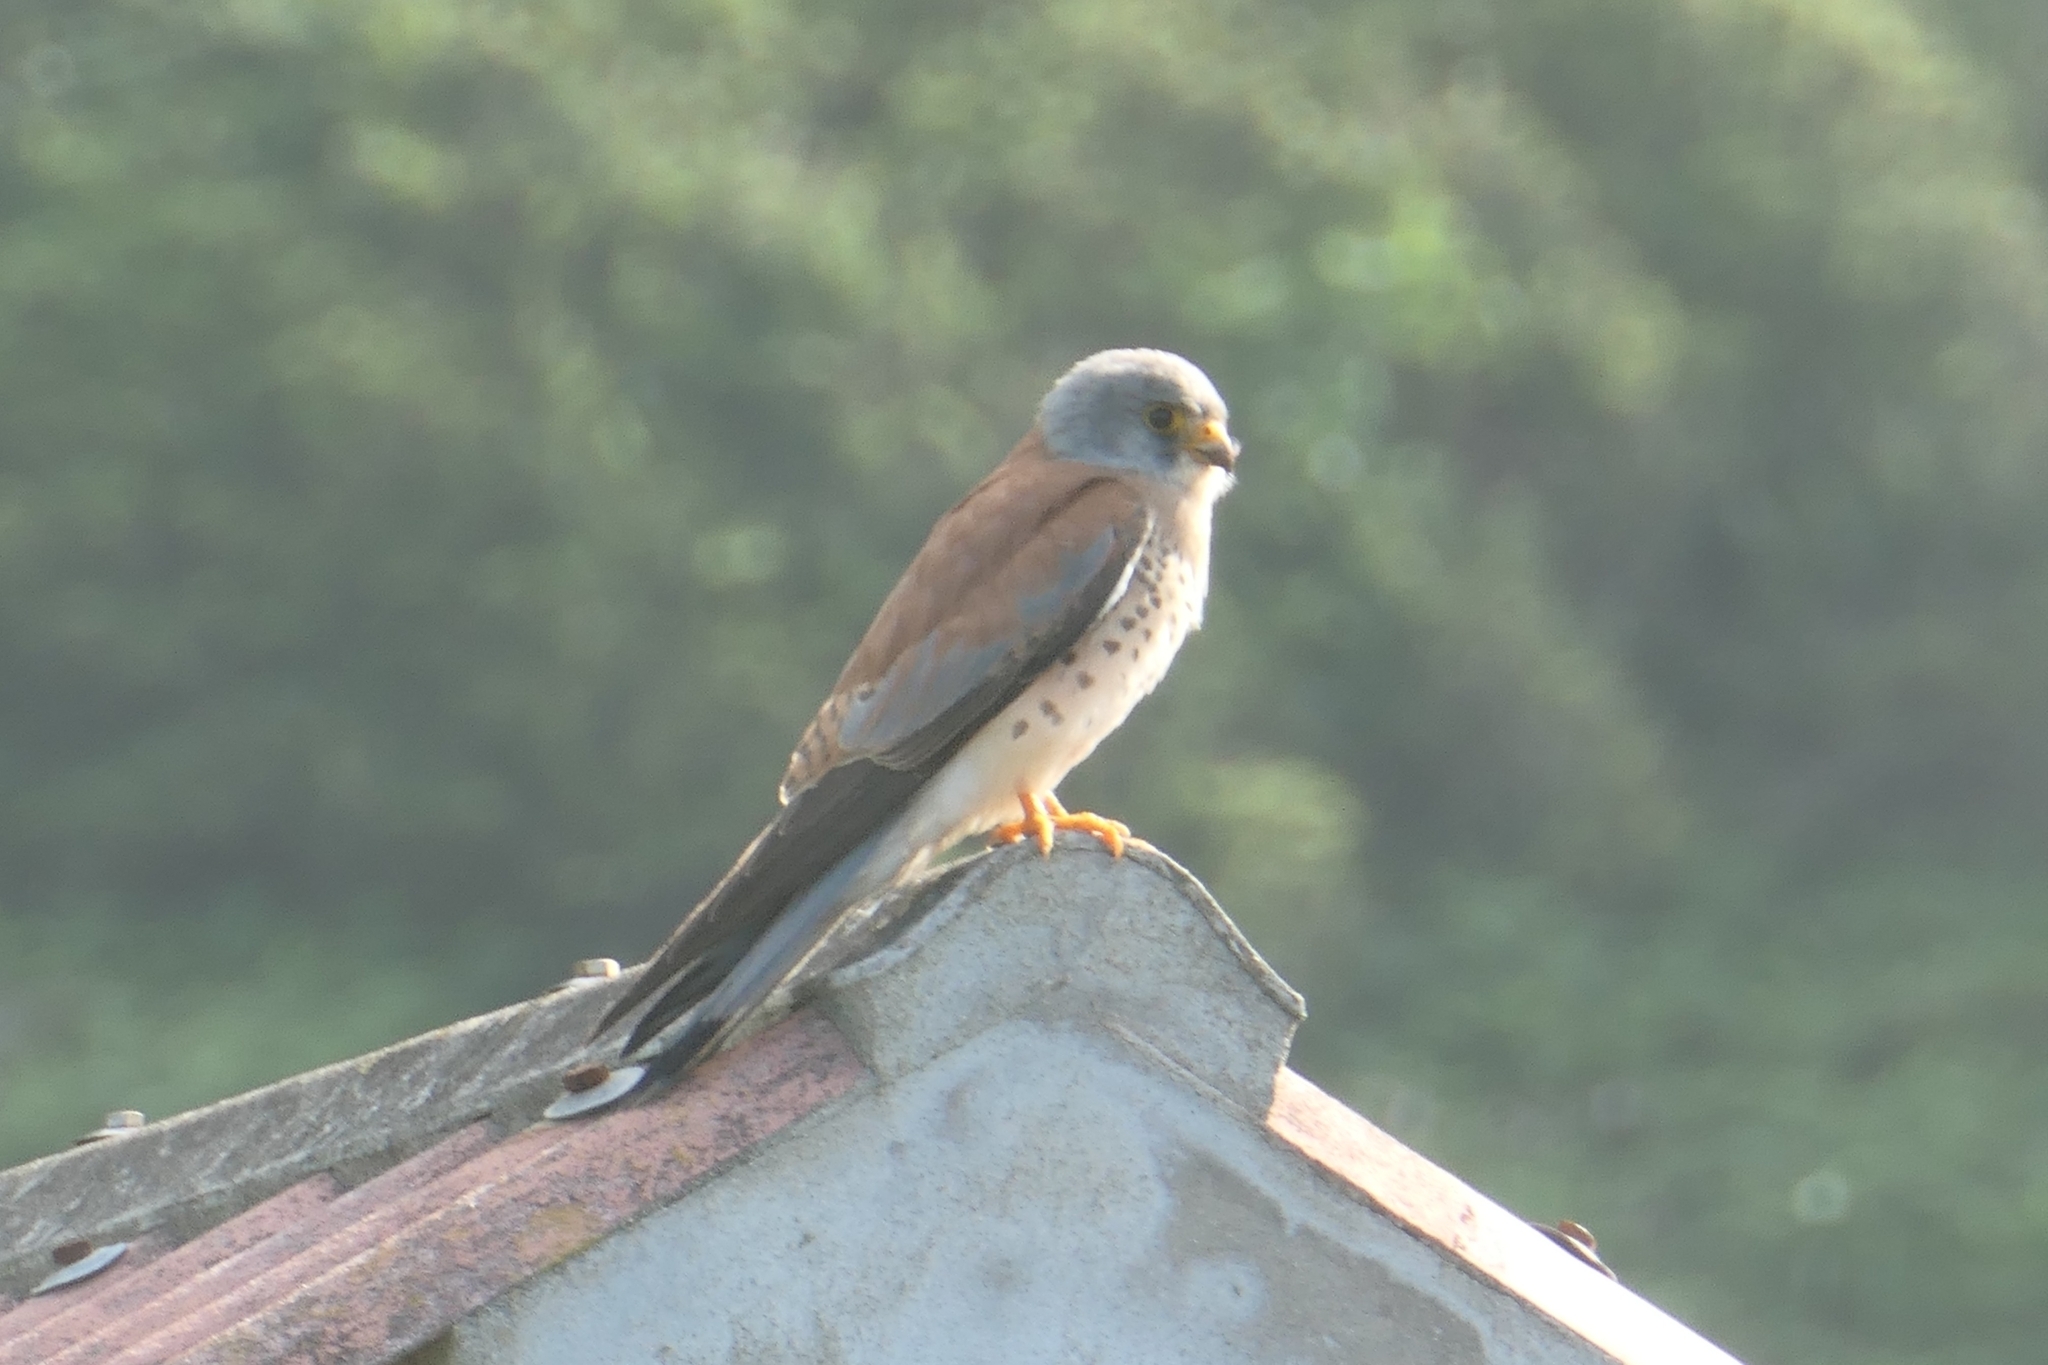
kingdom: Animalia
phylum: Chordata
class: Aves
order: Falconiformes
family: Falconidae
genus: Falco
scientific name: Falco naumanni
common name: Lesser kestrel
